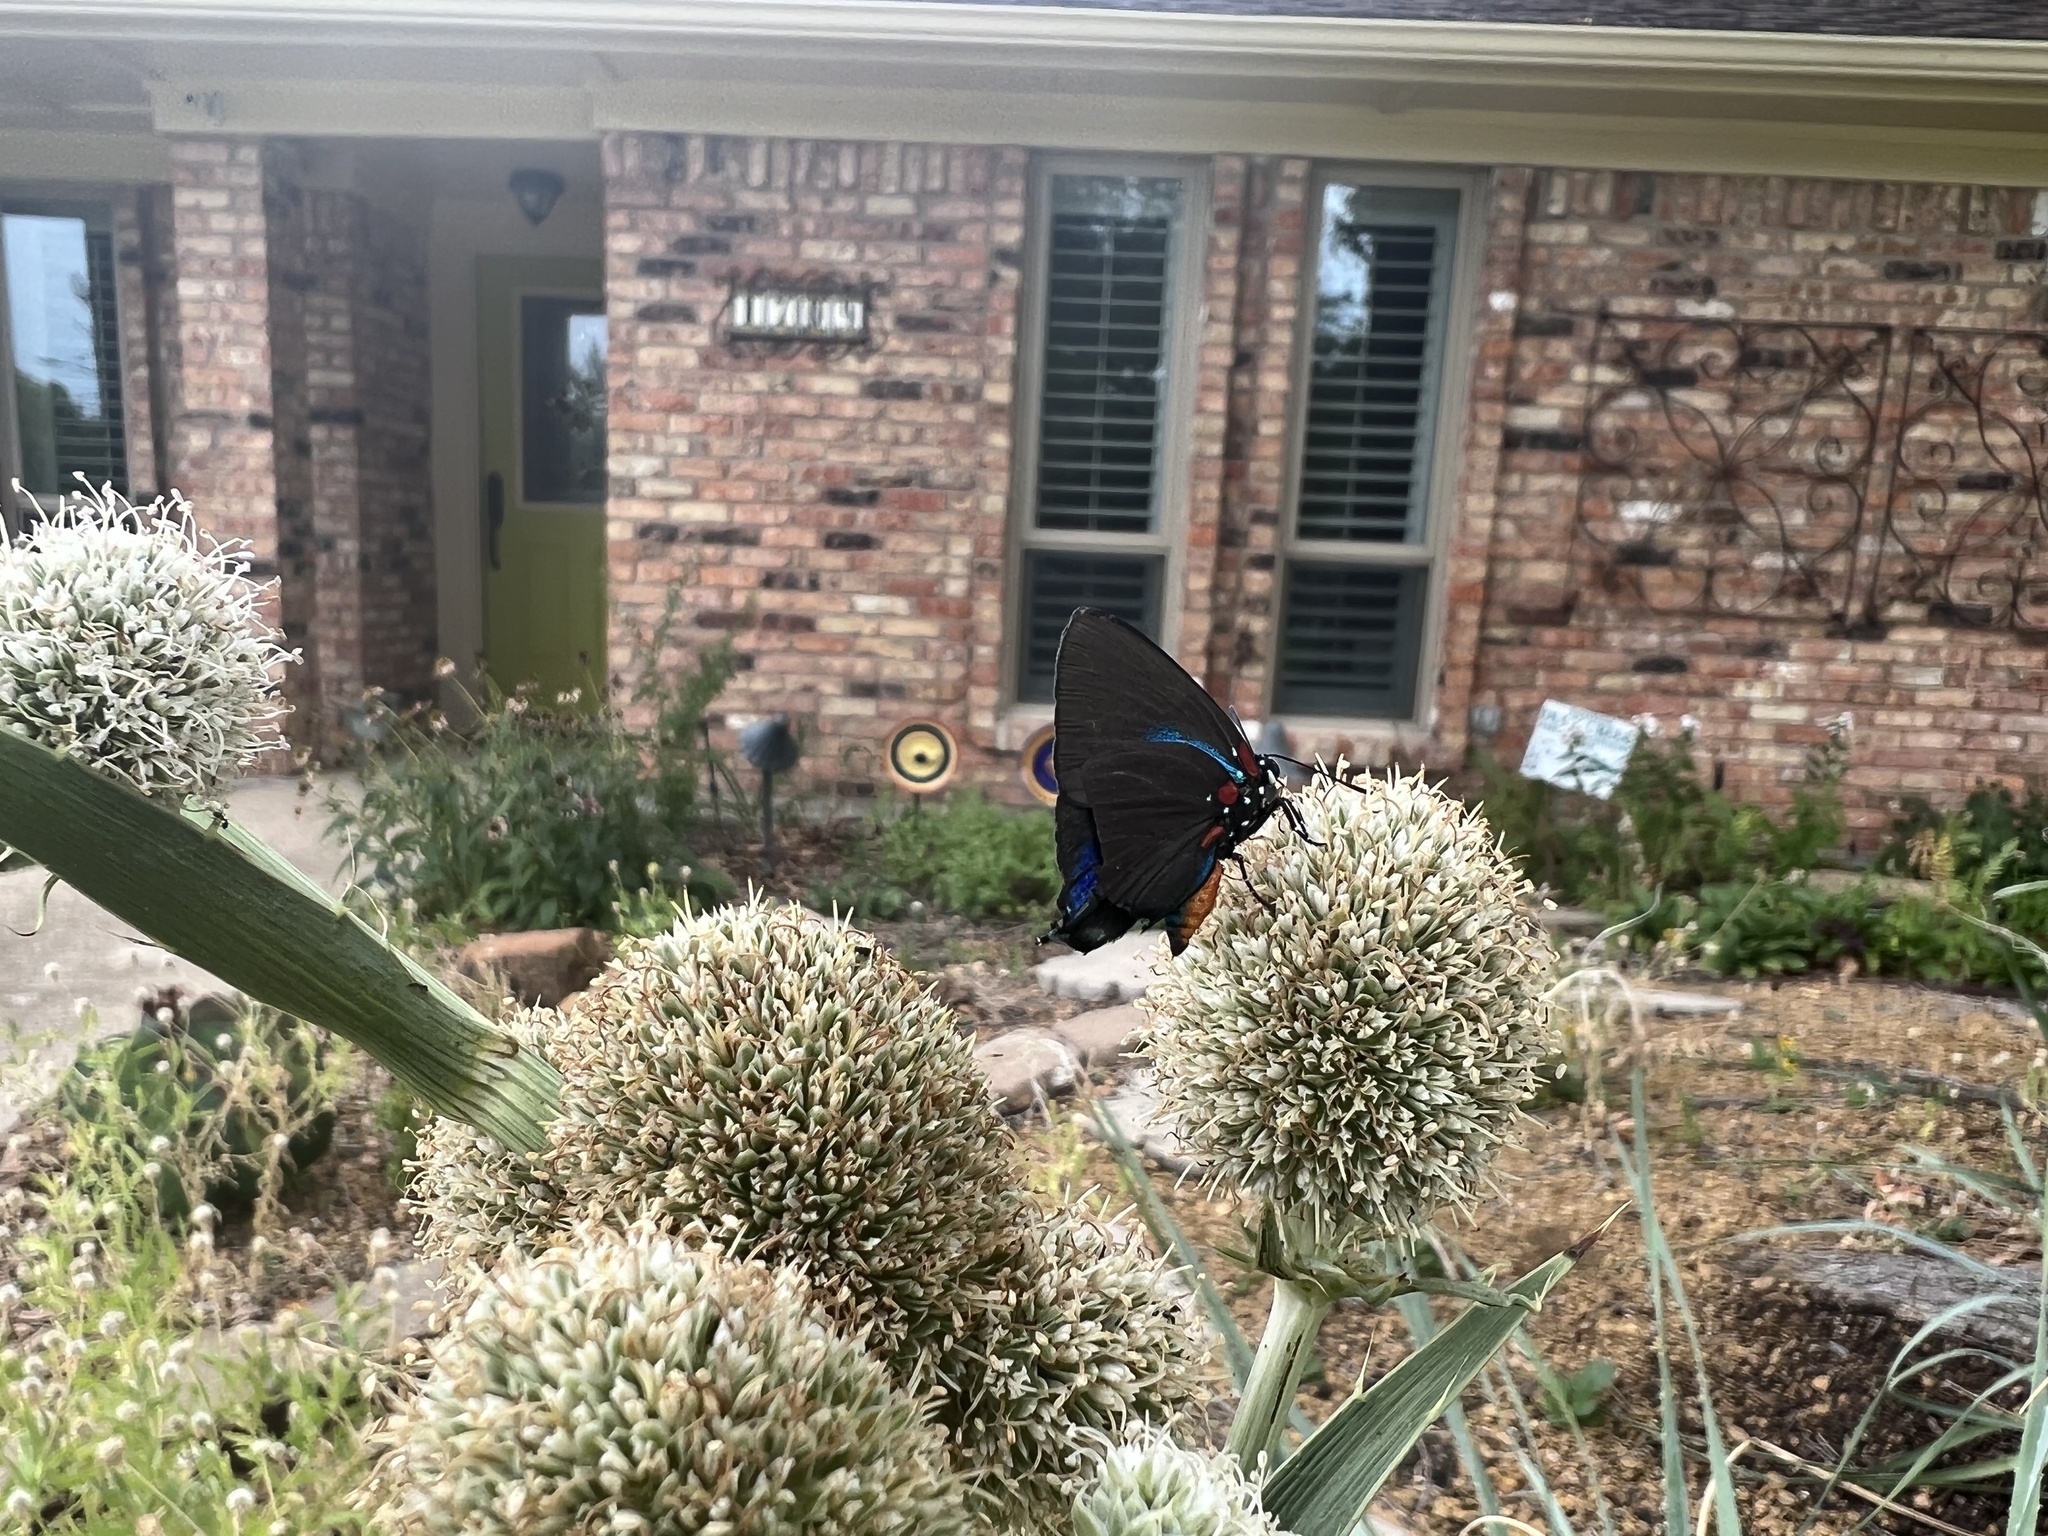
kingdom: Animalia
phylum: Arthropoda
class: Insecta
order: Lepidoptera
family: Lycaenidae
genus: Atlides
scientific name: Atlides halesus
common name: Great purple hairstreak
